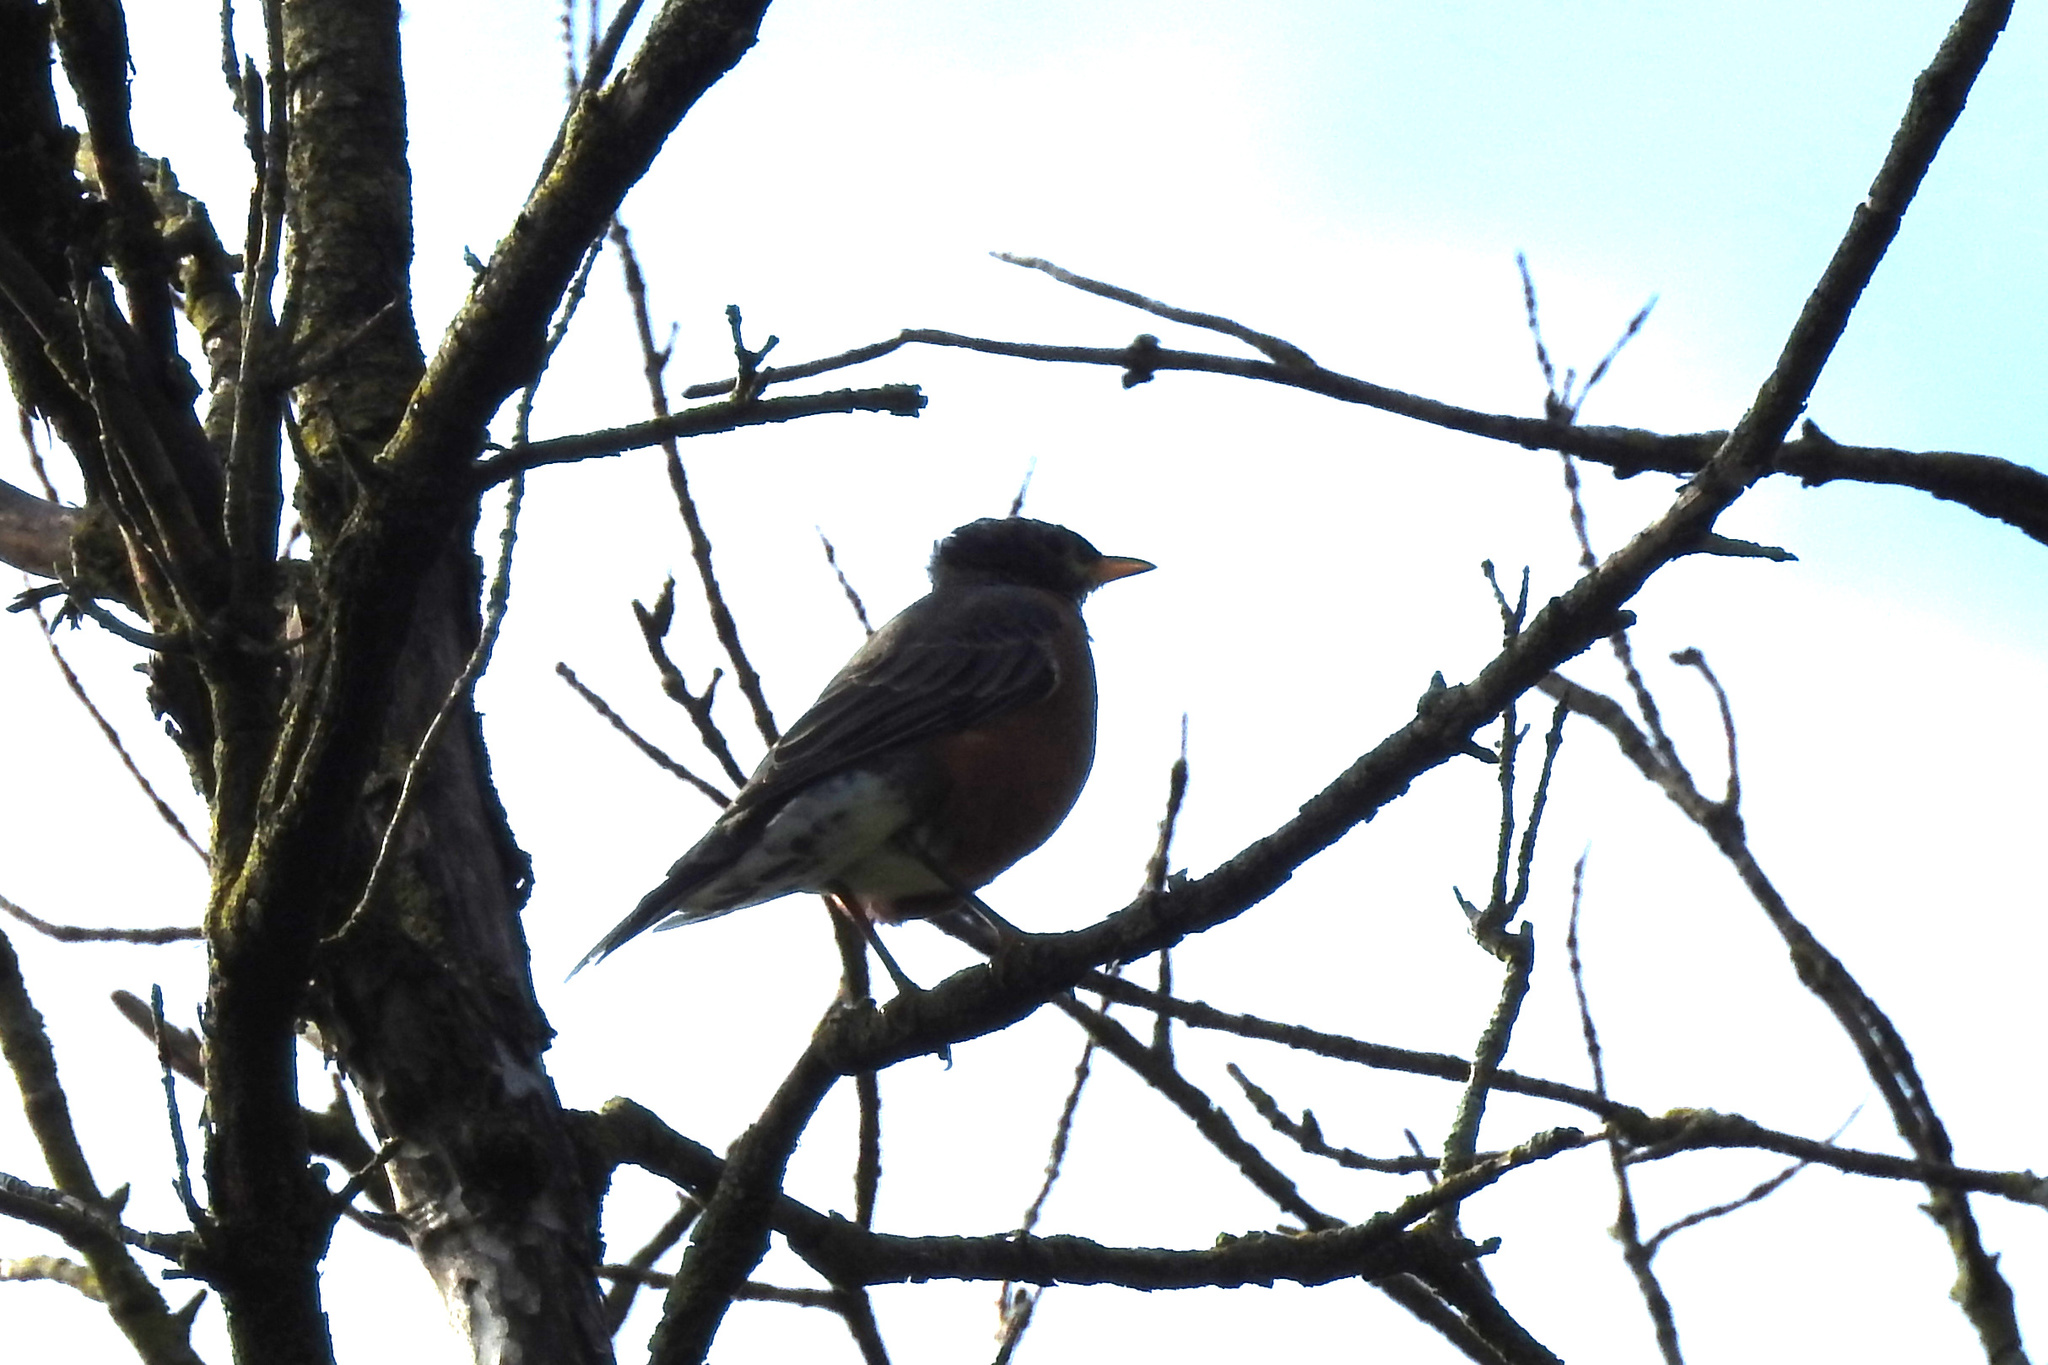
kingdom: Animalia
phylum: Chordata
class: Aves
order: Passeriformes
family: Turdidae
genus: Turdus
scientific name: Turdus migratorius
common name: American robin
